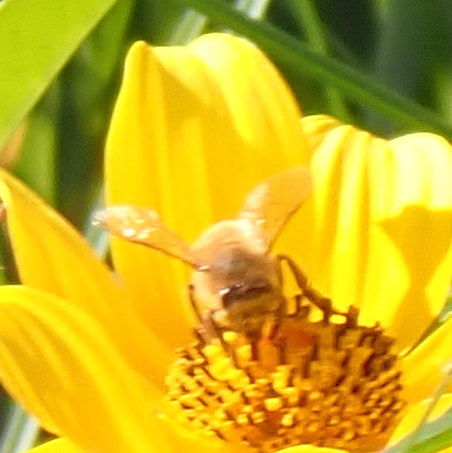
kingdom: Animalia
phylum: Arthropoda
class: Insecta
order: Hymenoptera
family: Apidae
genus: Apis
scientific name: Apis mellifera
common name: Honey bee
